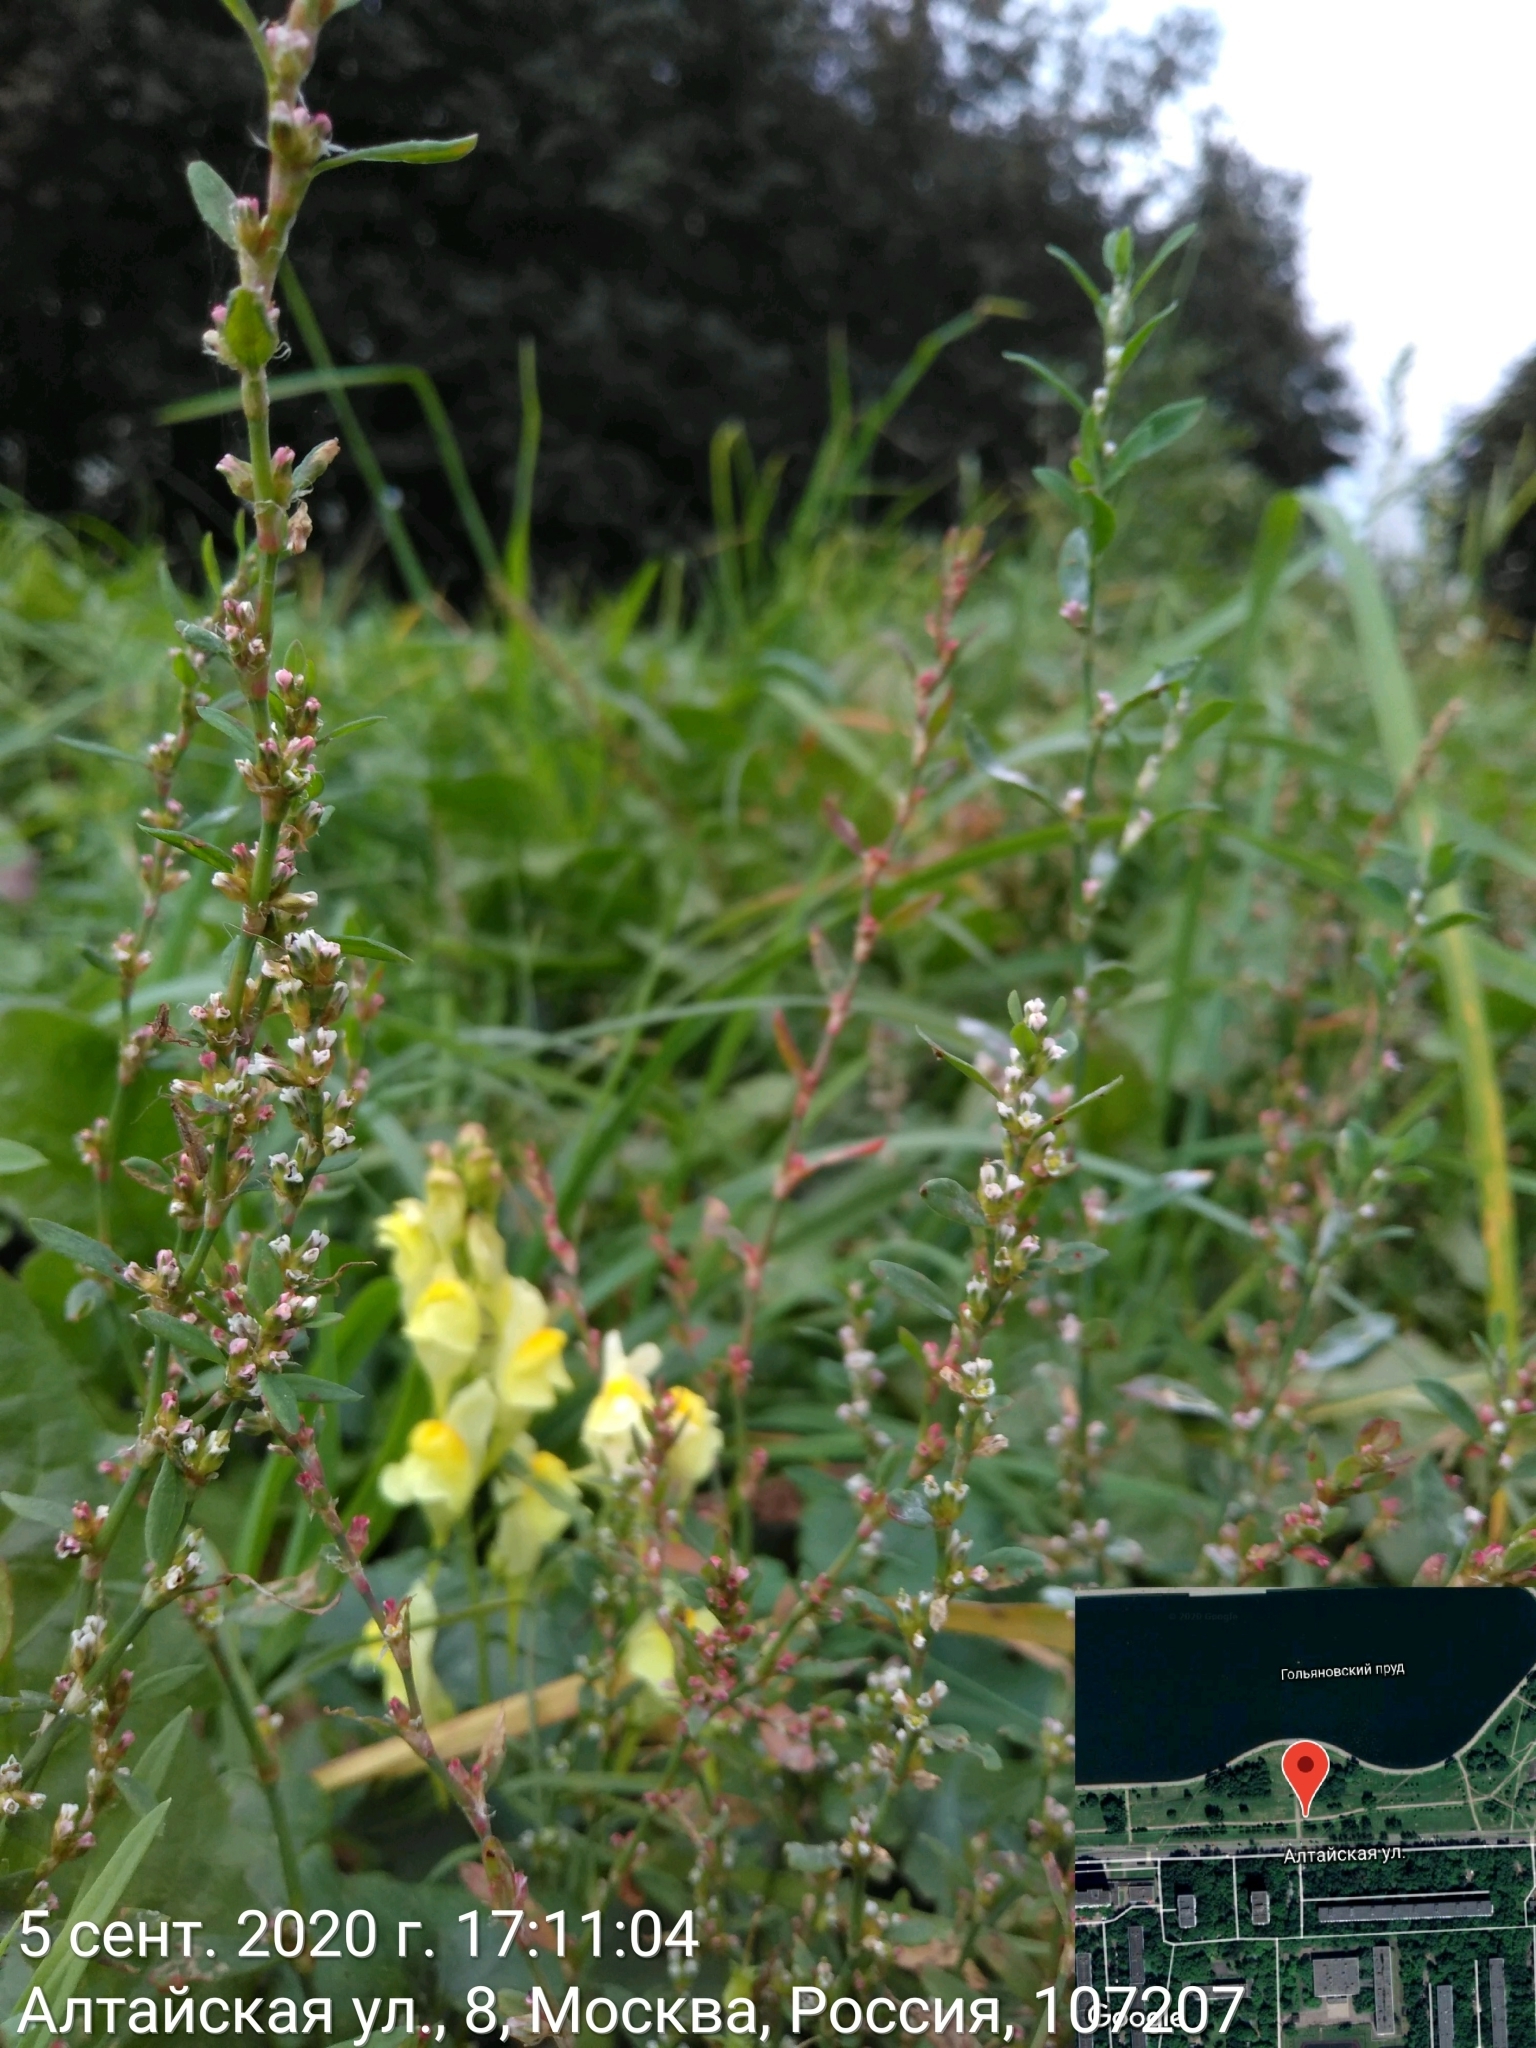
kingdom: Plantae
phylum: Tracheophyta
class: Magnoliopsida
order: Caryophyllales
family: Polygonaceae
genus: Polygonum
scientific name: Polygonum
